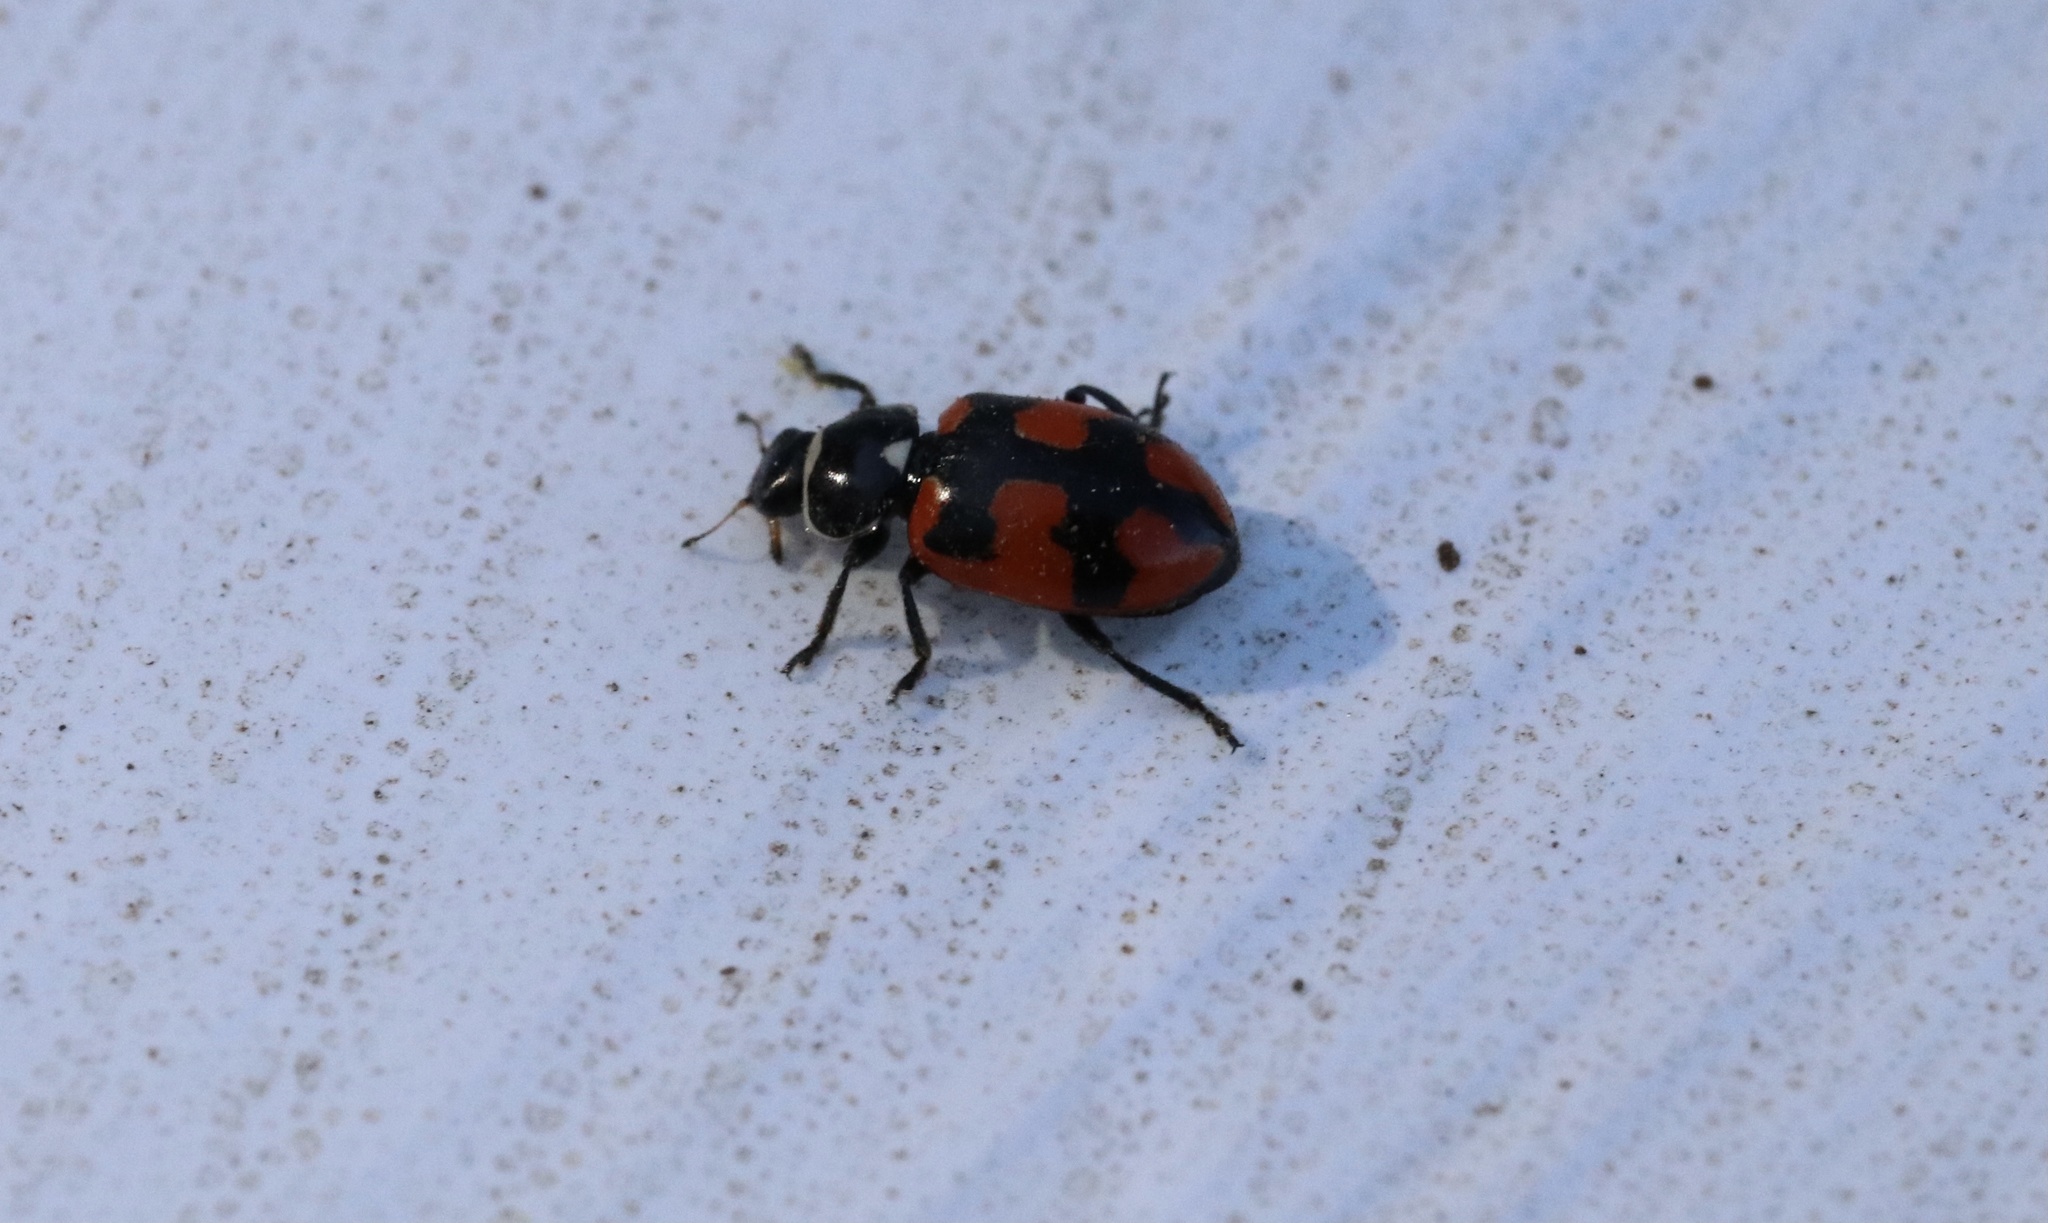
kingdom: Animalia
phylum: Arthropoda
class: Insecta
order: Coleoptera
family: Coccinellidae
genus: Eriopis
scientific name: Eriopis eschscholtzii
